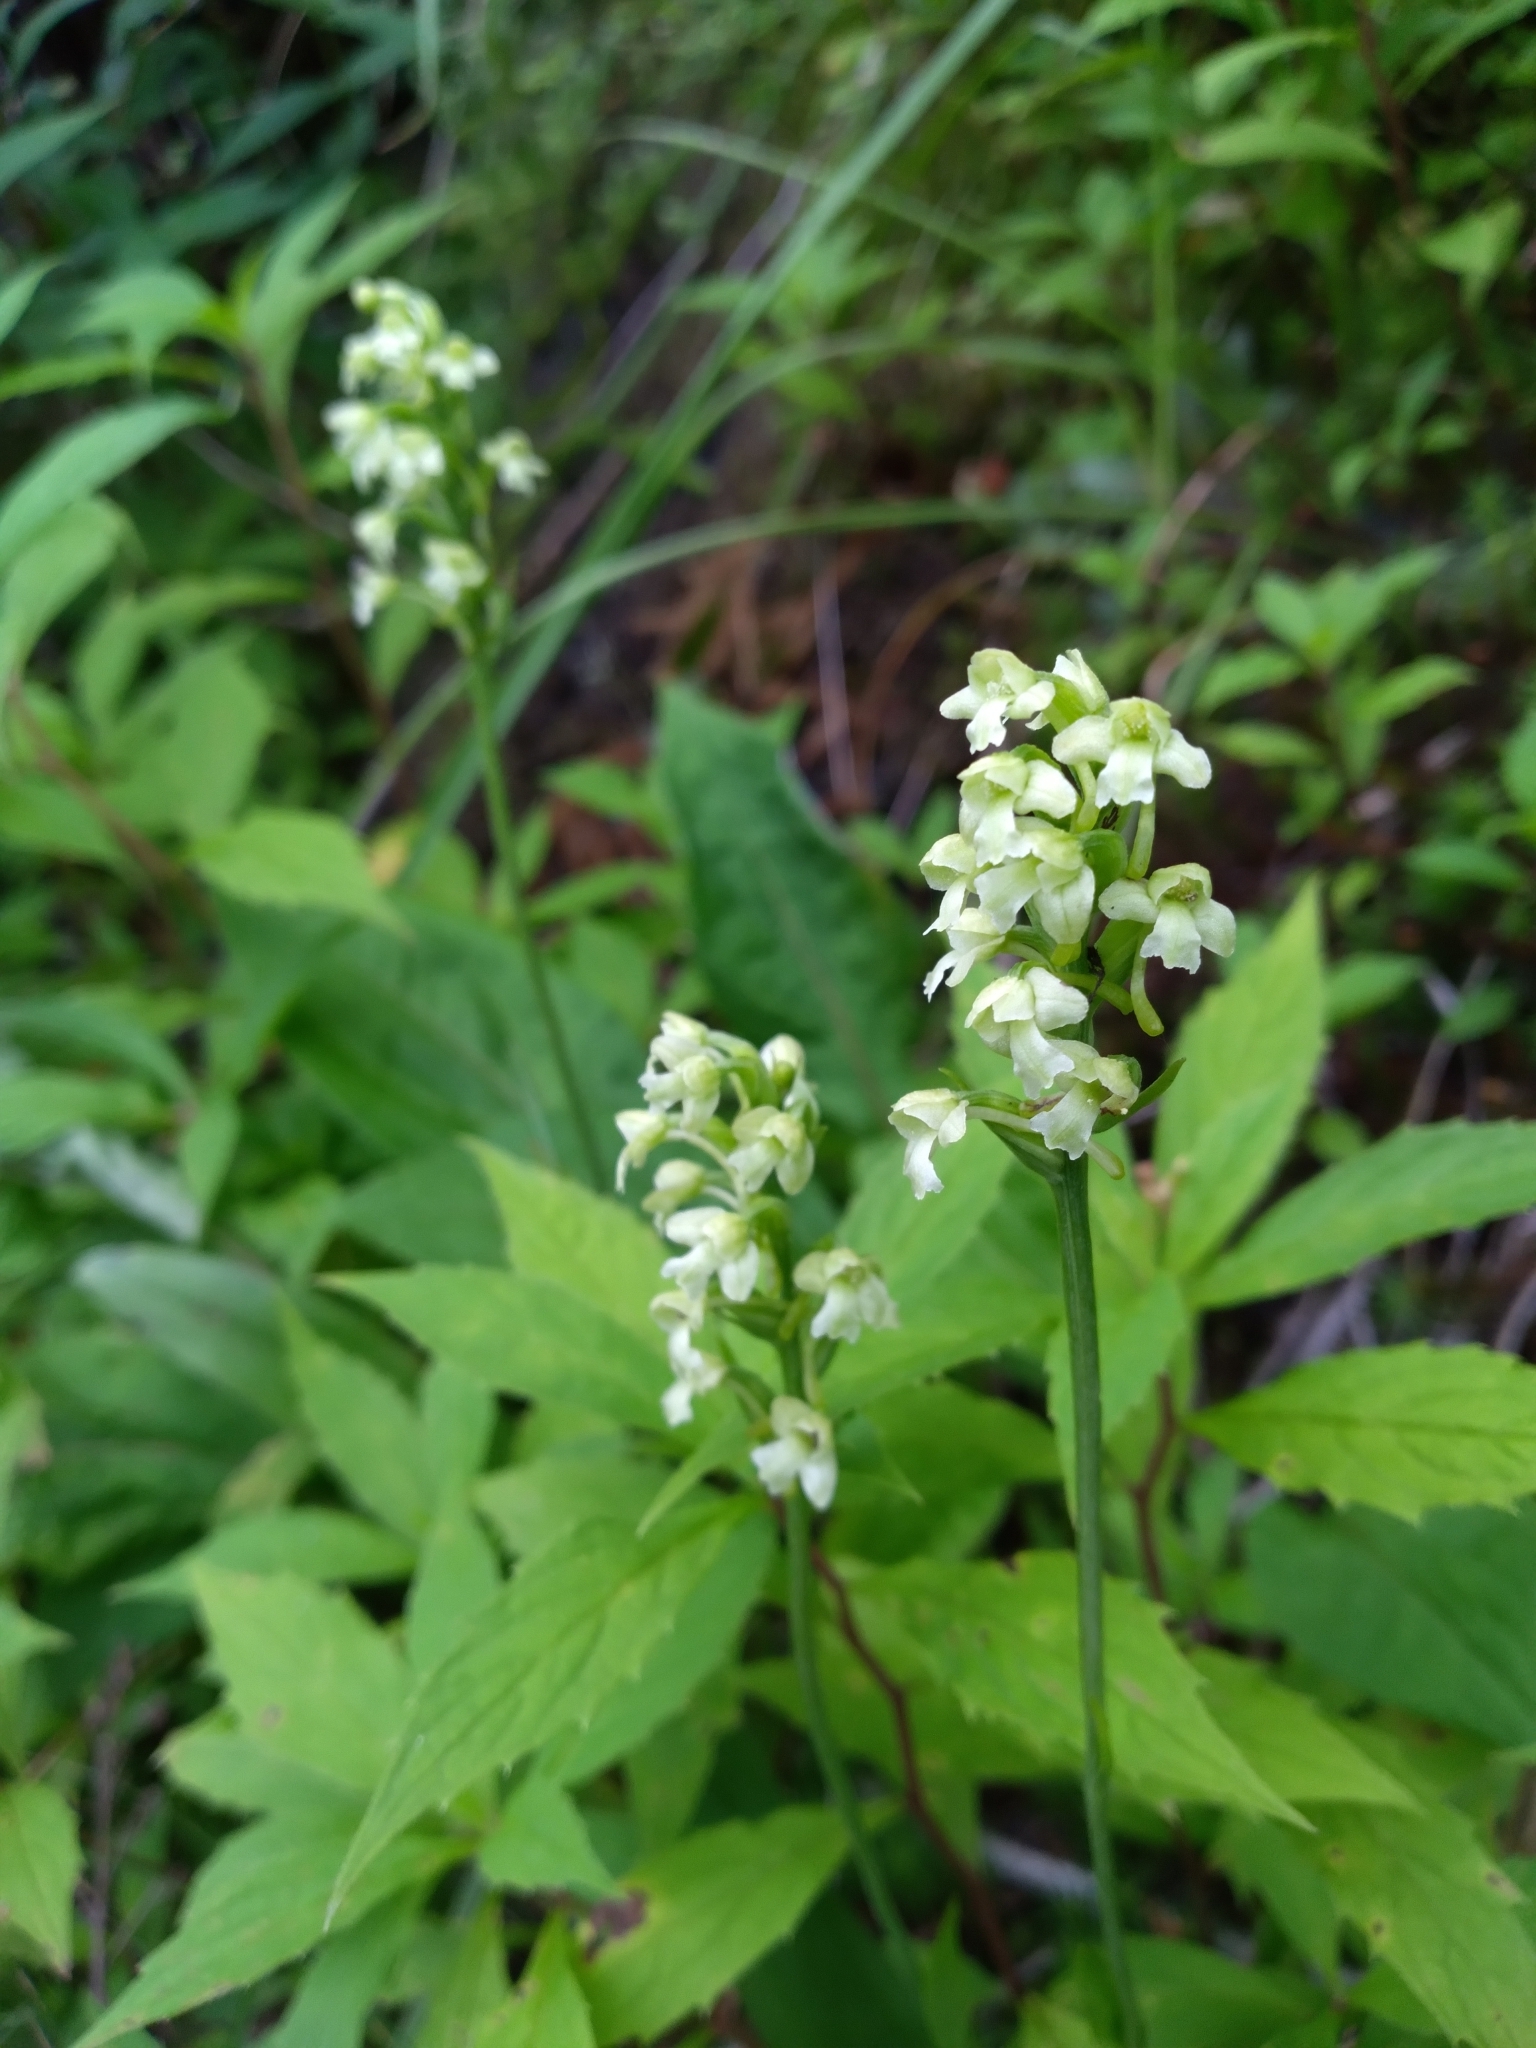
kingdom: Plantae
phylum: Tracheophyta
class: Liliopsida
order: Asparagales
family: Orchidaceae
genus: Platanthera
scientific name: Platanthera clavellata
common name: Club-spur orchid
